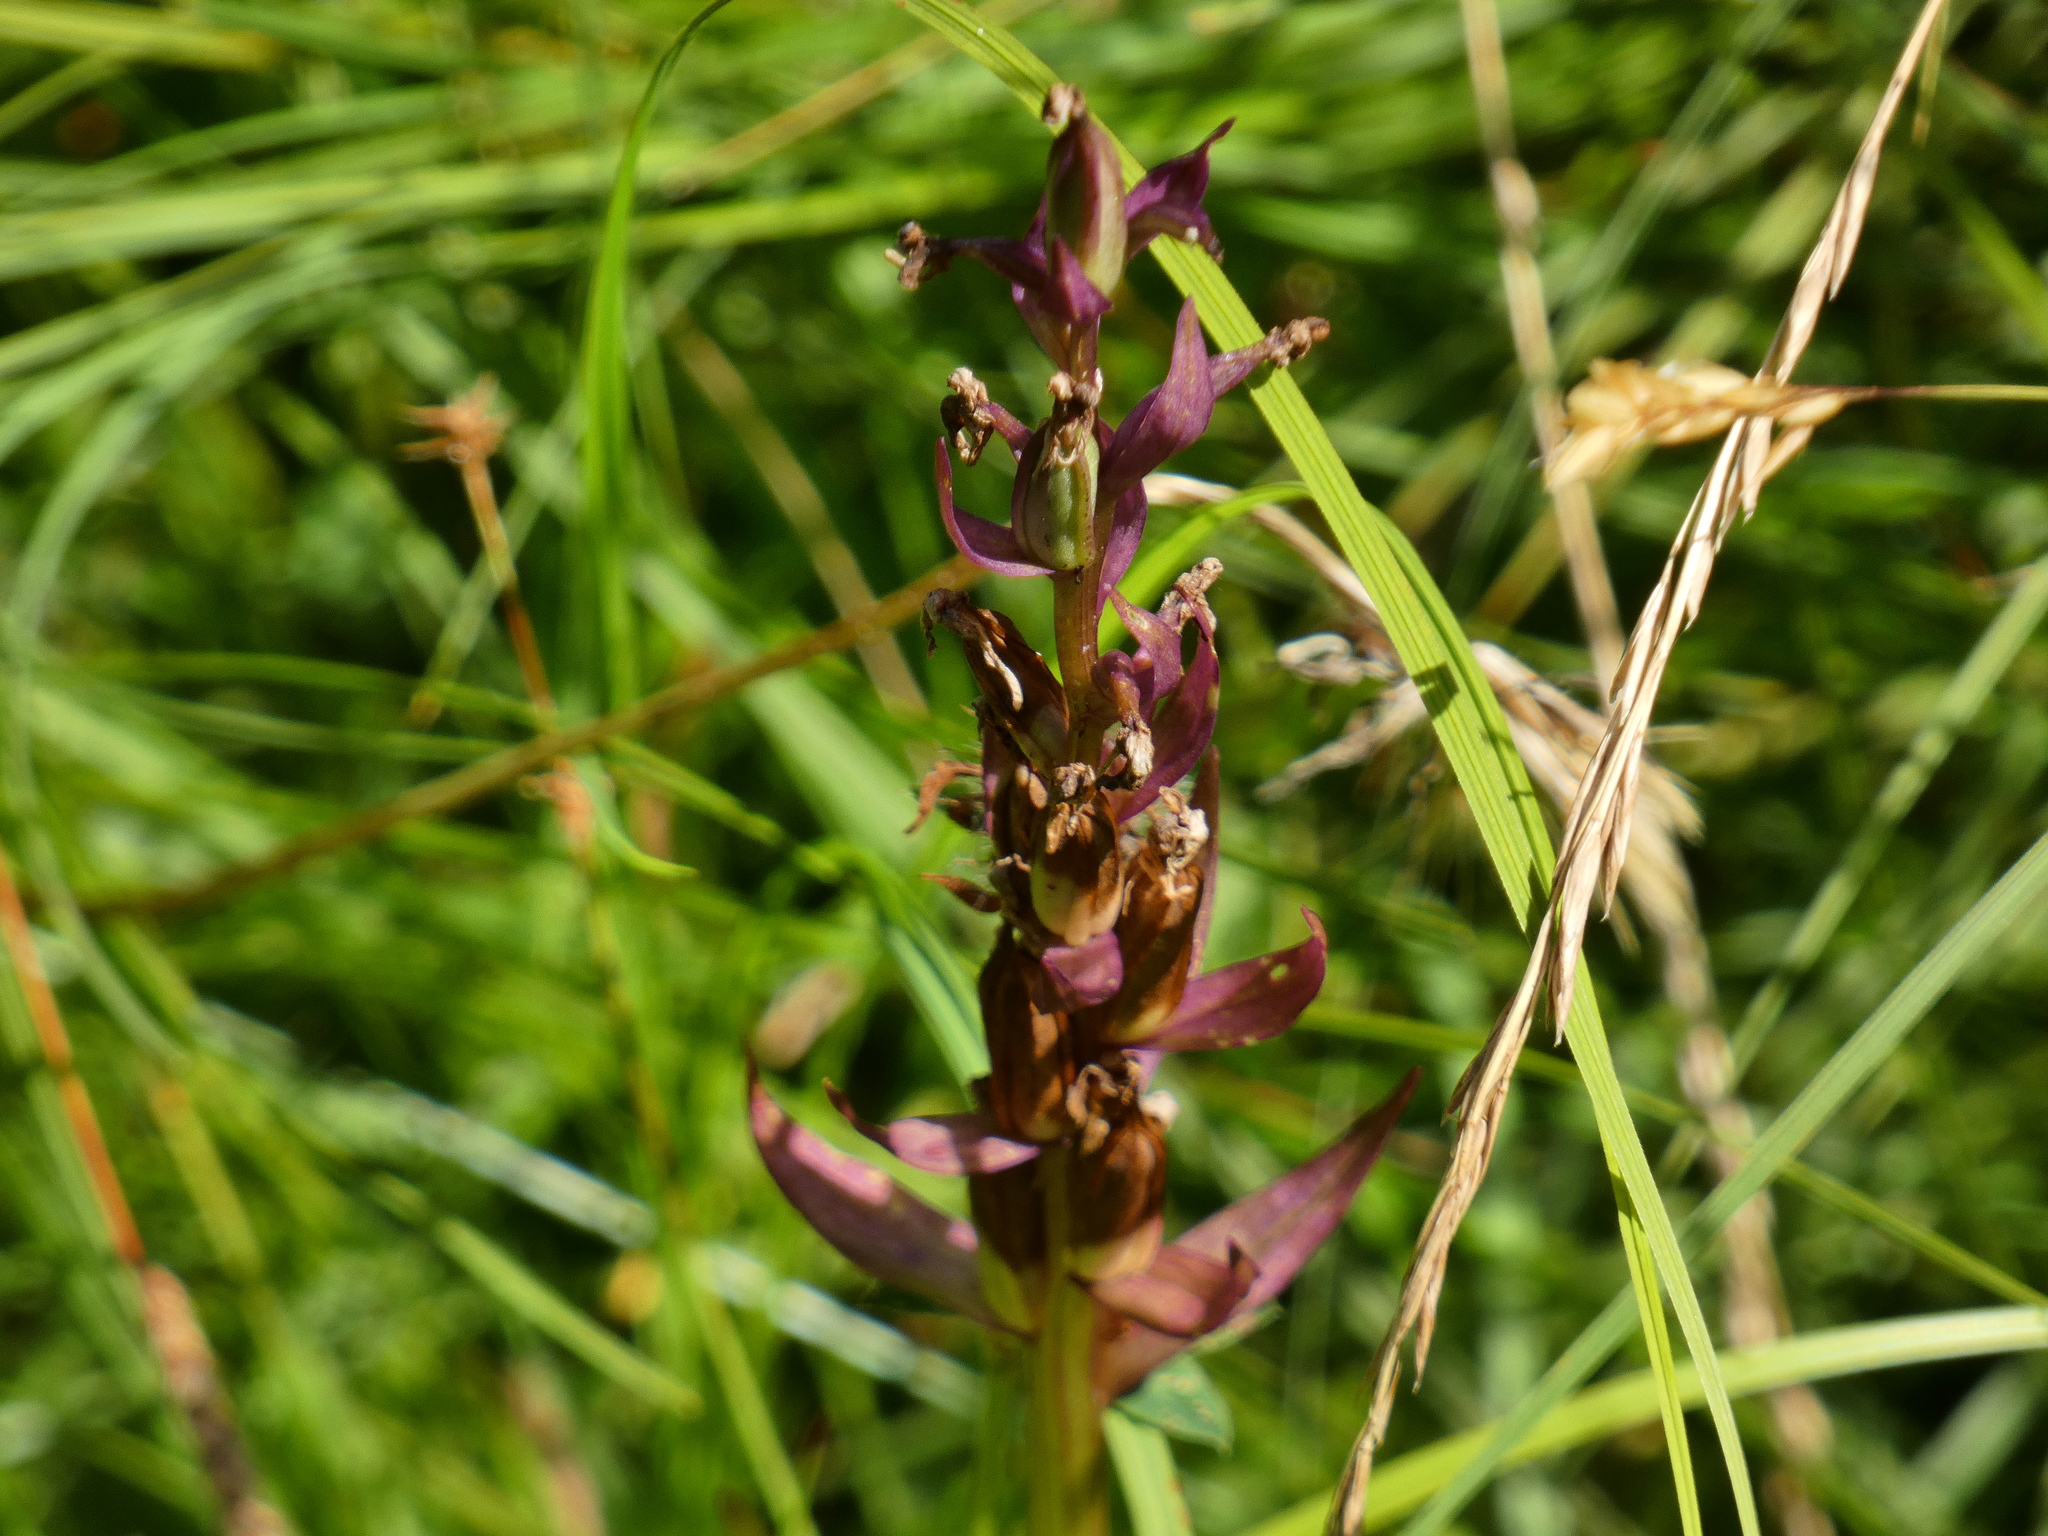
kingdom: Plantae
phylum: Tracheophyta
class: Liliopsida
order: Asparagales
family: Orchidaceae
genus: Dactylorhiza
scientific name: Dactylorhiza majalis
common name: Marsh orchid
